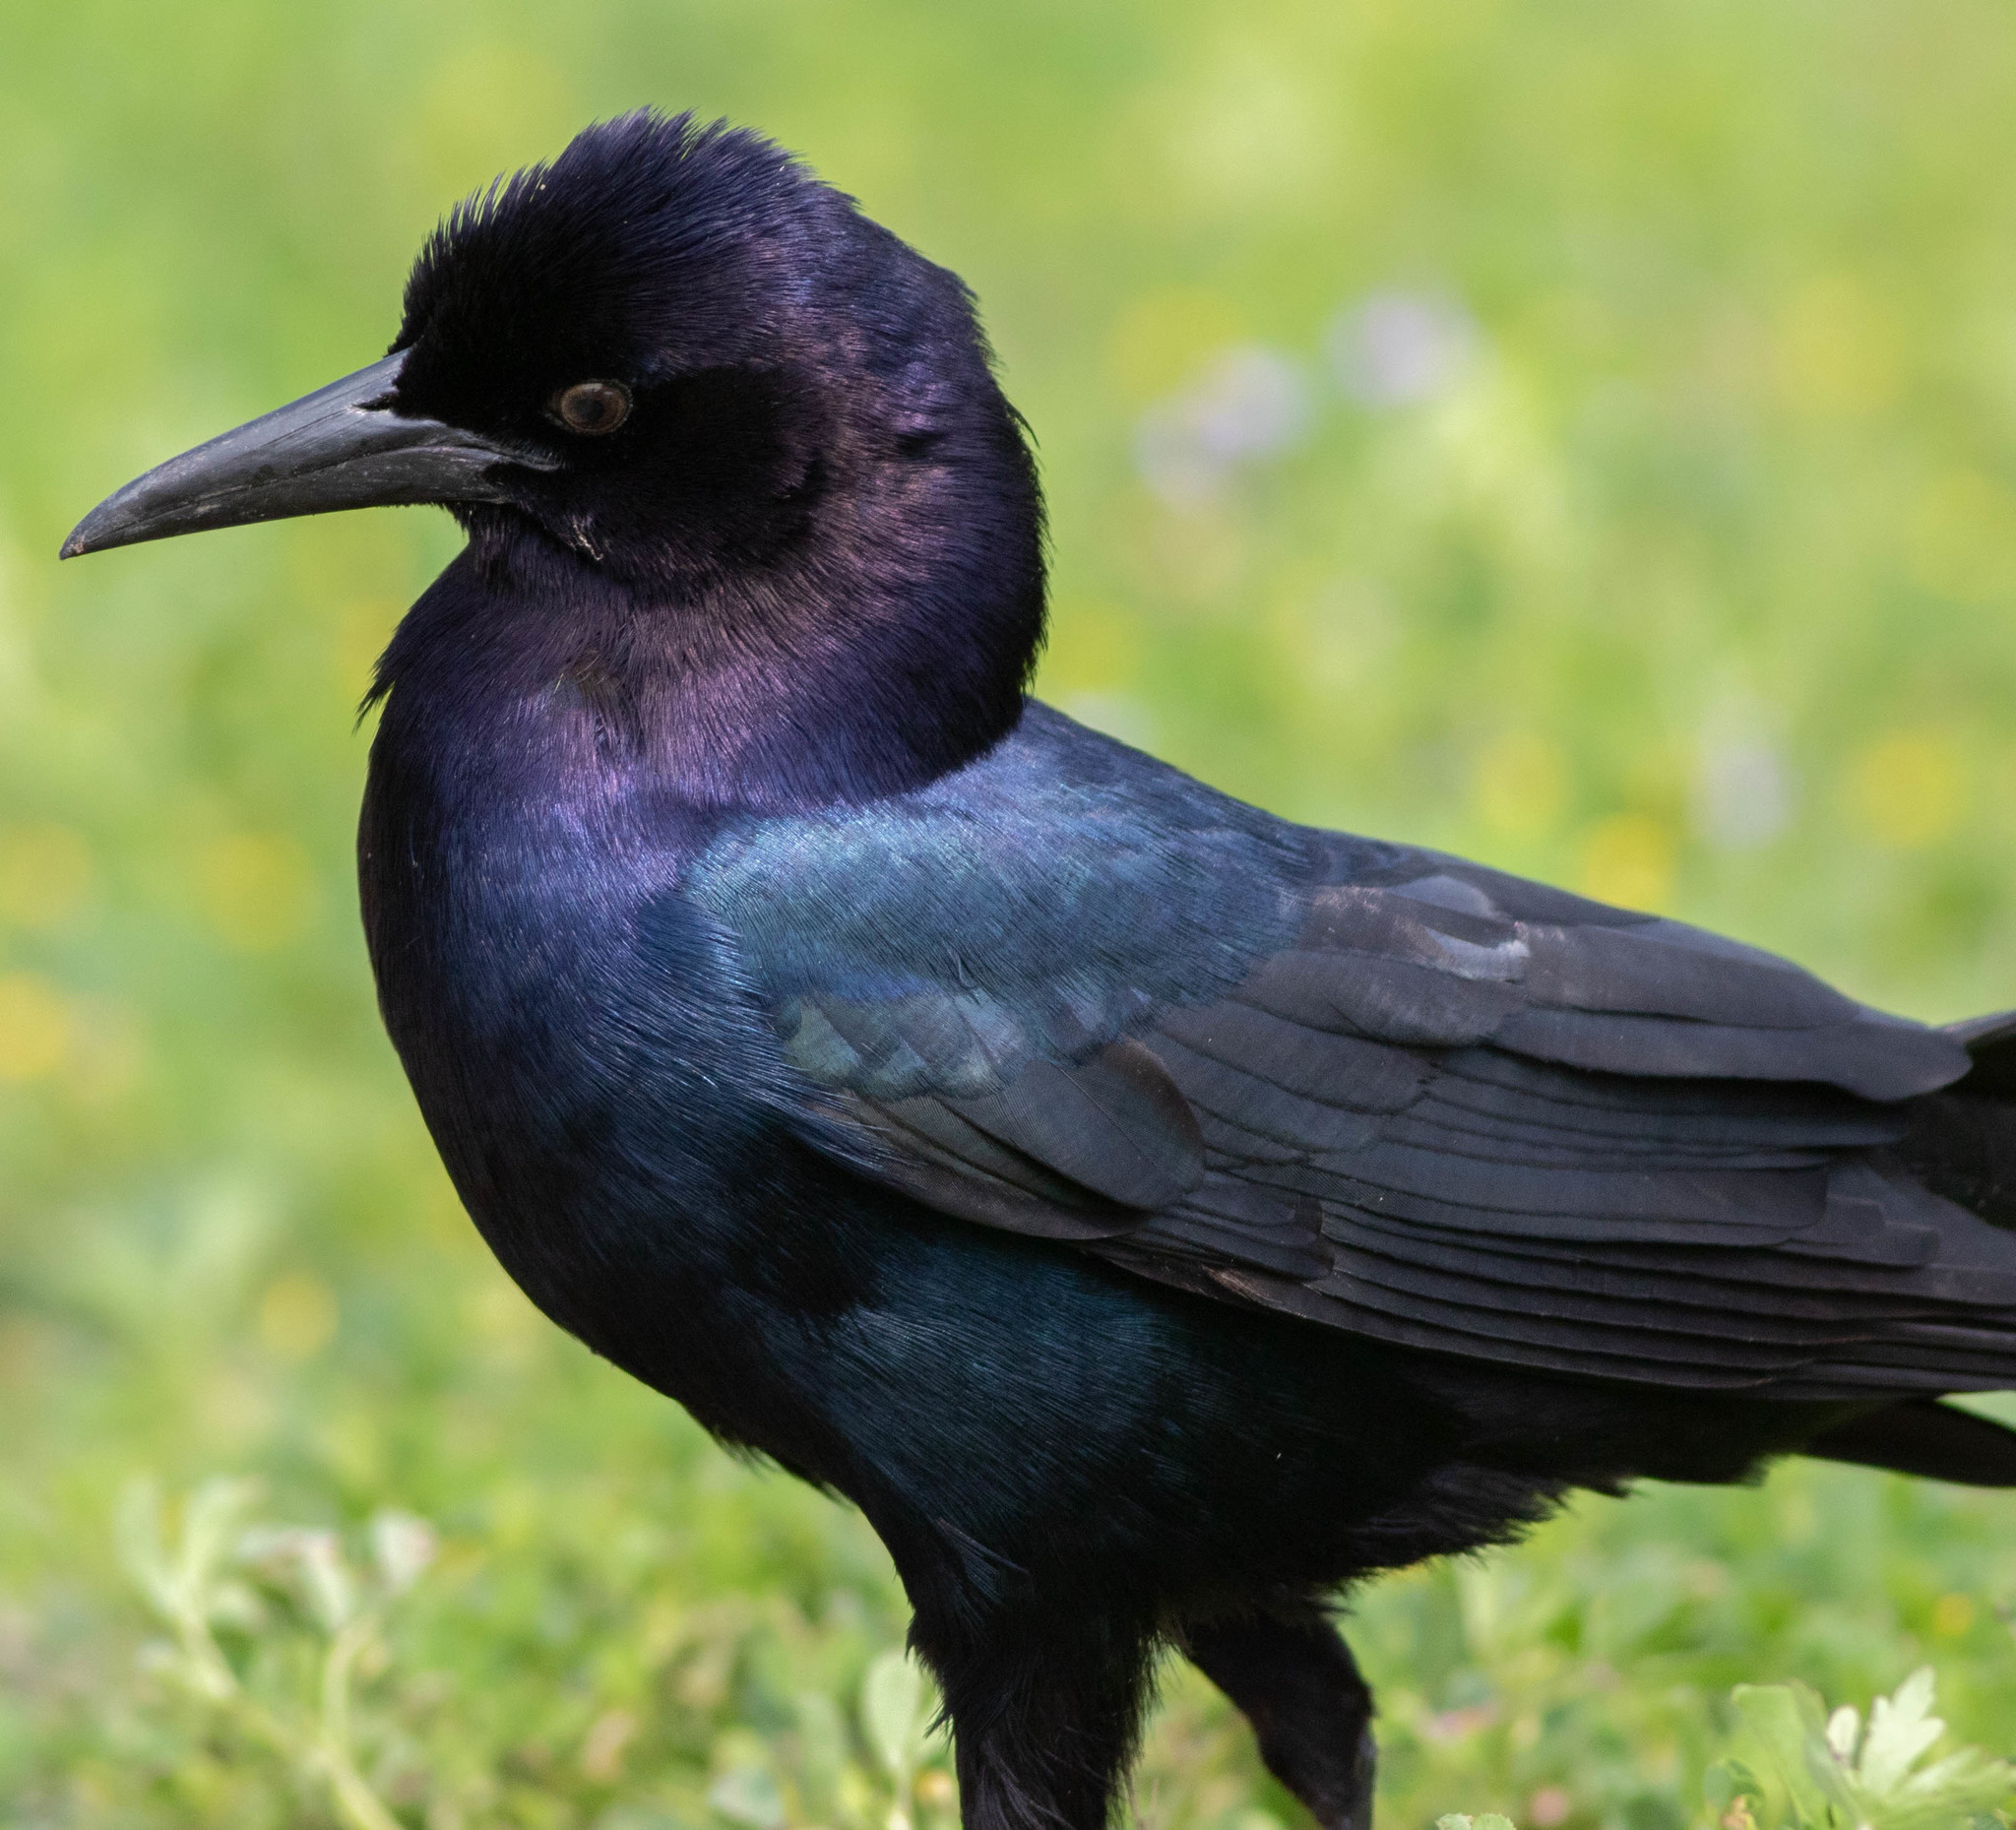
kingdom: Animalia
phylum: Chordata
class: Aves
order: Passeriformes
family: Icteridae
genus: Quiscalus
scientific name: Quiscalus major
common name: Boat-tailed grackle
